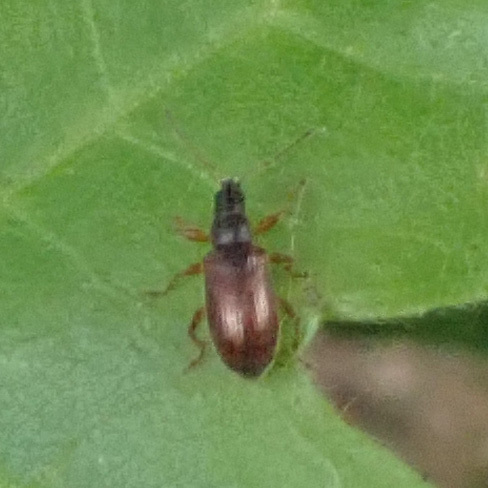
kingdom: Animalia
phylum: Arthropoda
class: Insecta
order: Coleoptera
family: Curculionidae
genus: Phyllobius
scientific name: Phyllobius oblongus
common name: Brown leaf weevil
